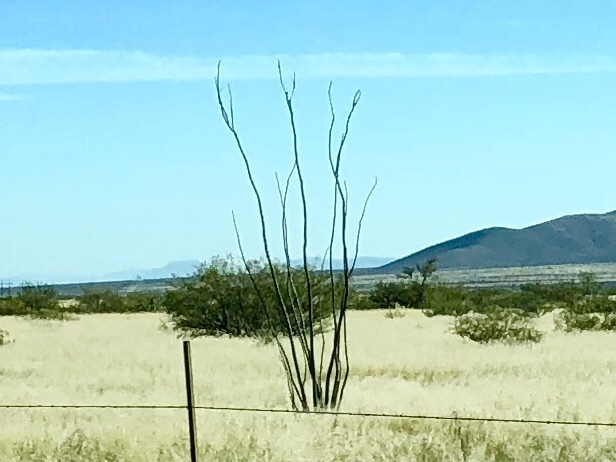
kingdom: Plantae
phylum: Tracheophyta
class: Magnoliopsida
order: Ericales
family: Fouquieriaceae
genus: Fouquieria
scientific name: Fouquieria splendens
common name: Vine-cactus
